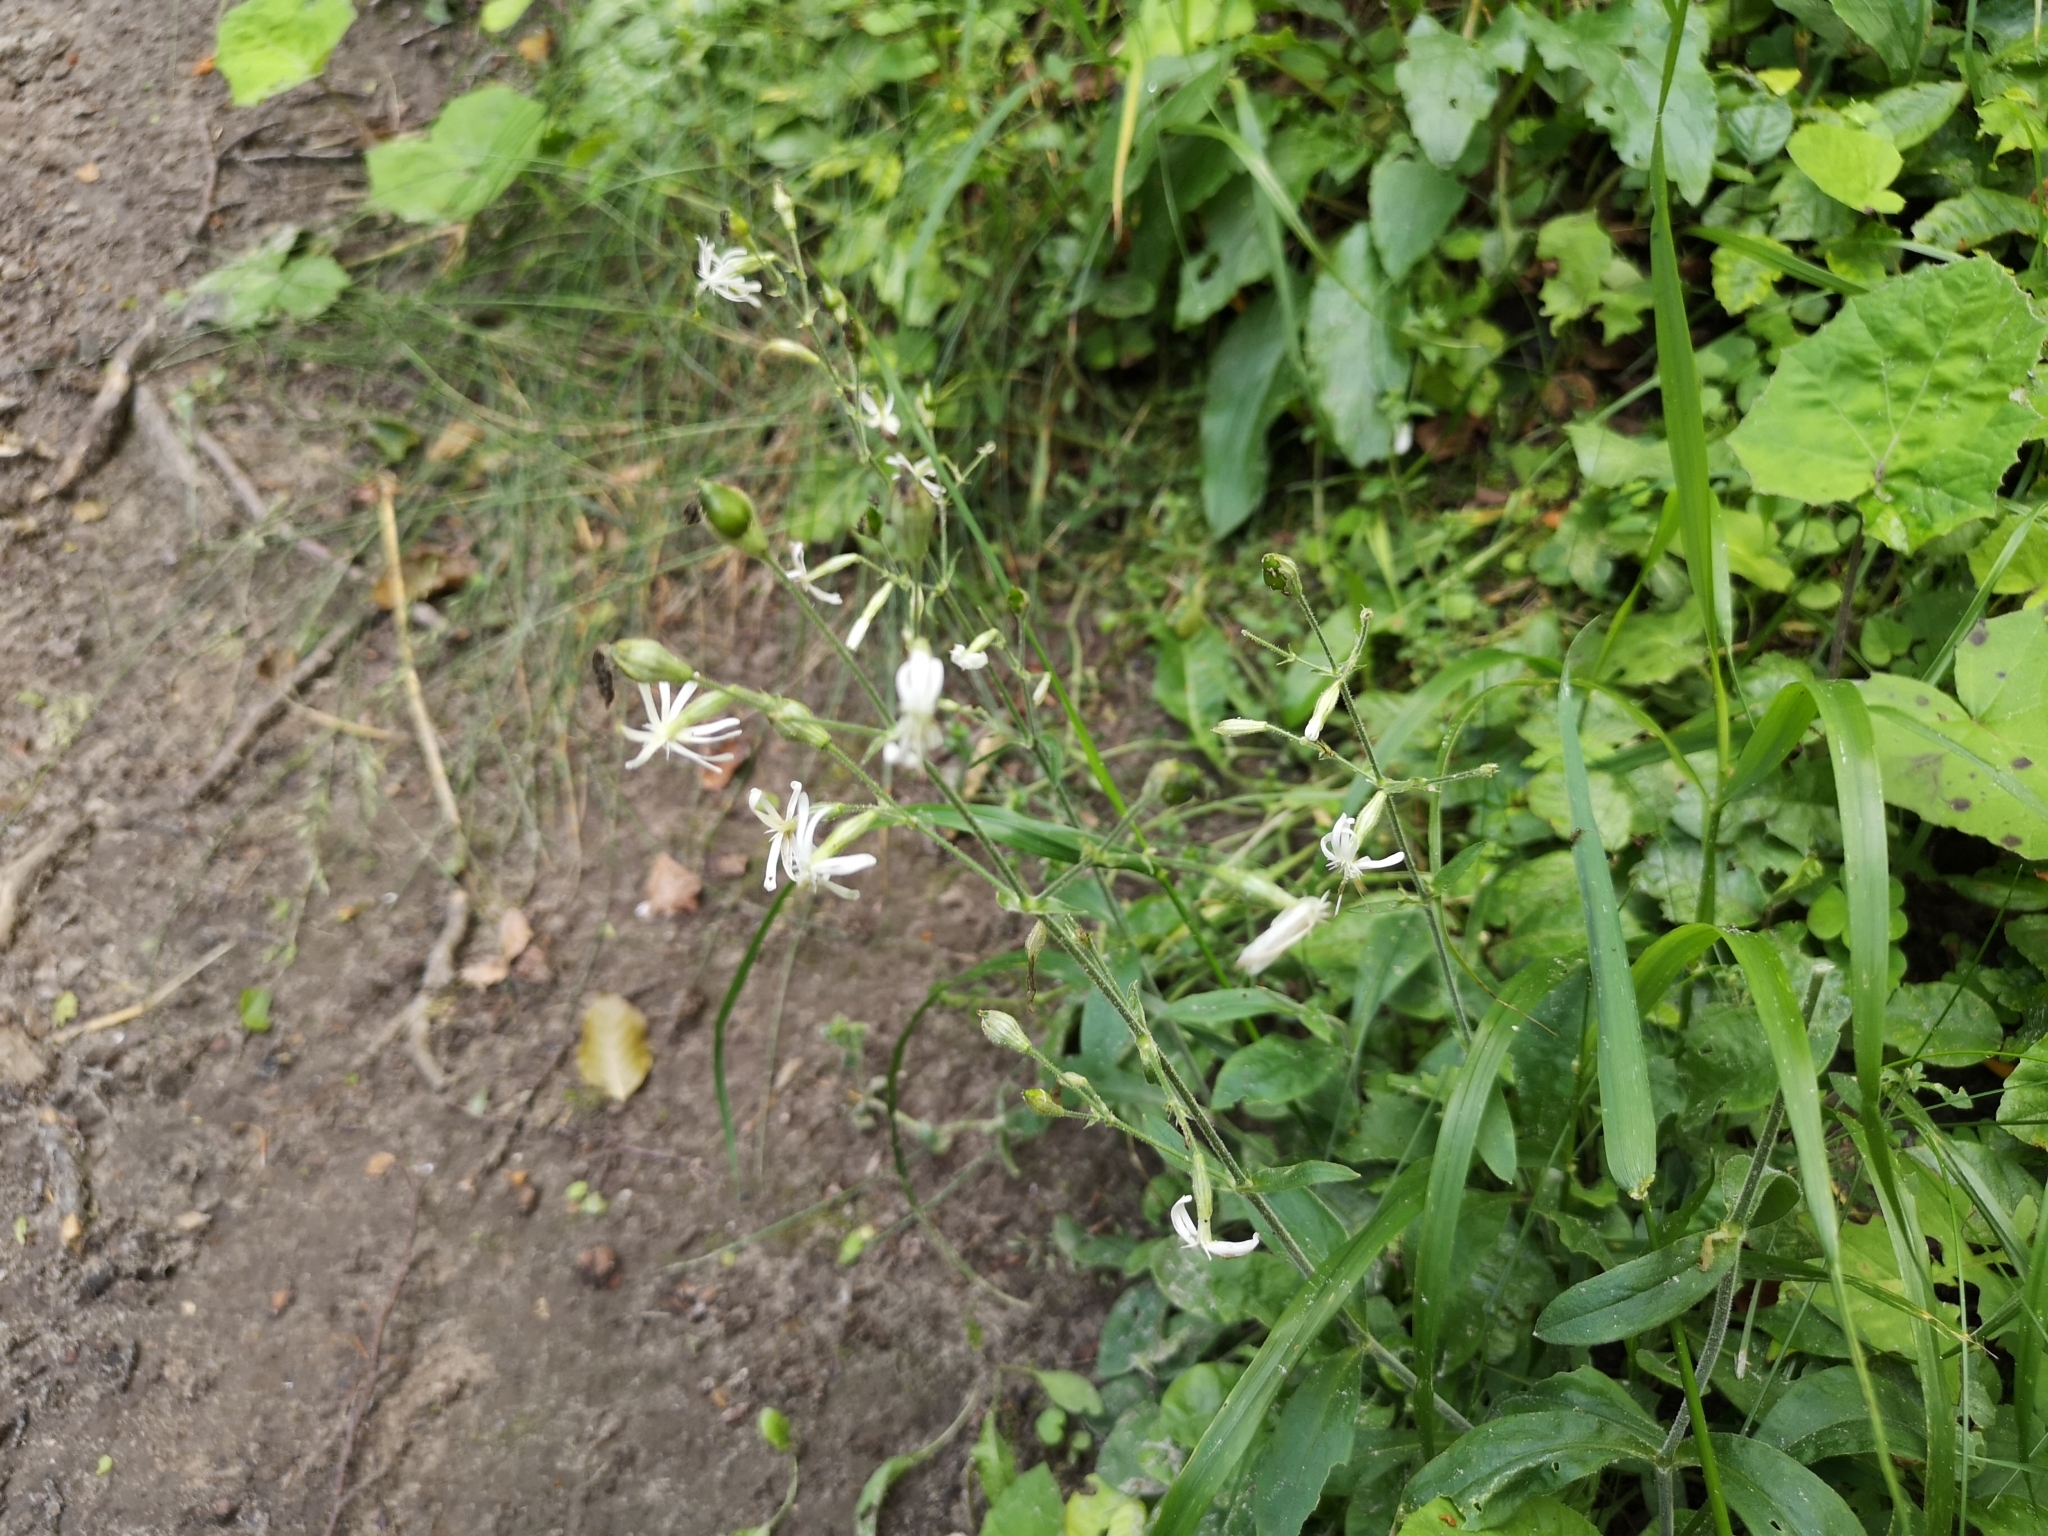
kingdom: Plantae
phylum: Tracheophyta
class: Magnoliopsida
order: Caryophyllales
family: Caryophyllaceae
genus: Silene
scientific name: Silene nutans
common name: Nottingham catchfly
